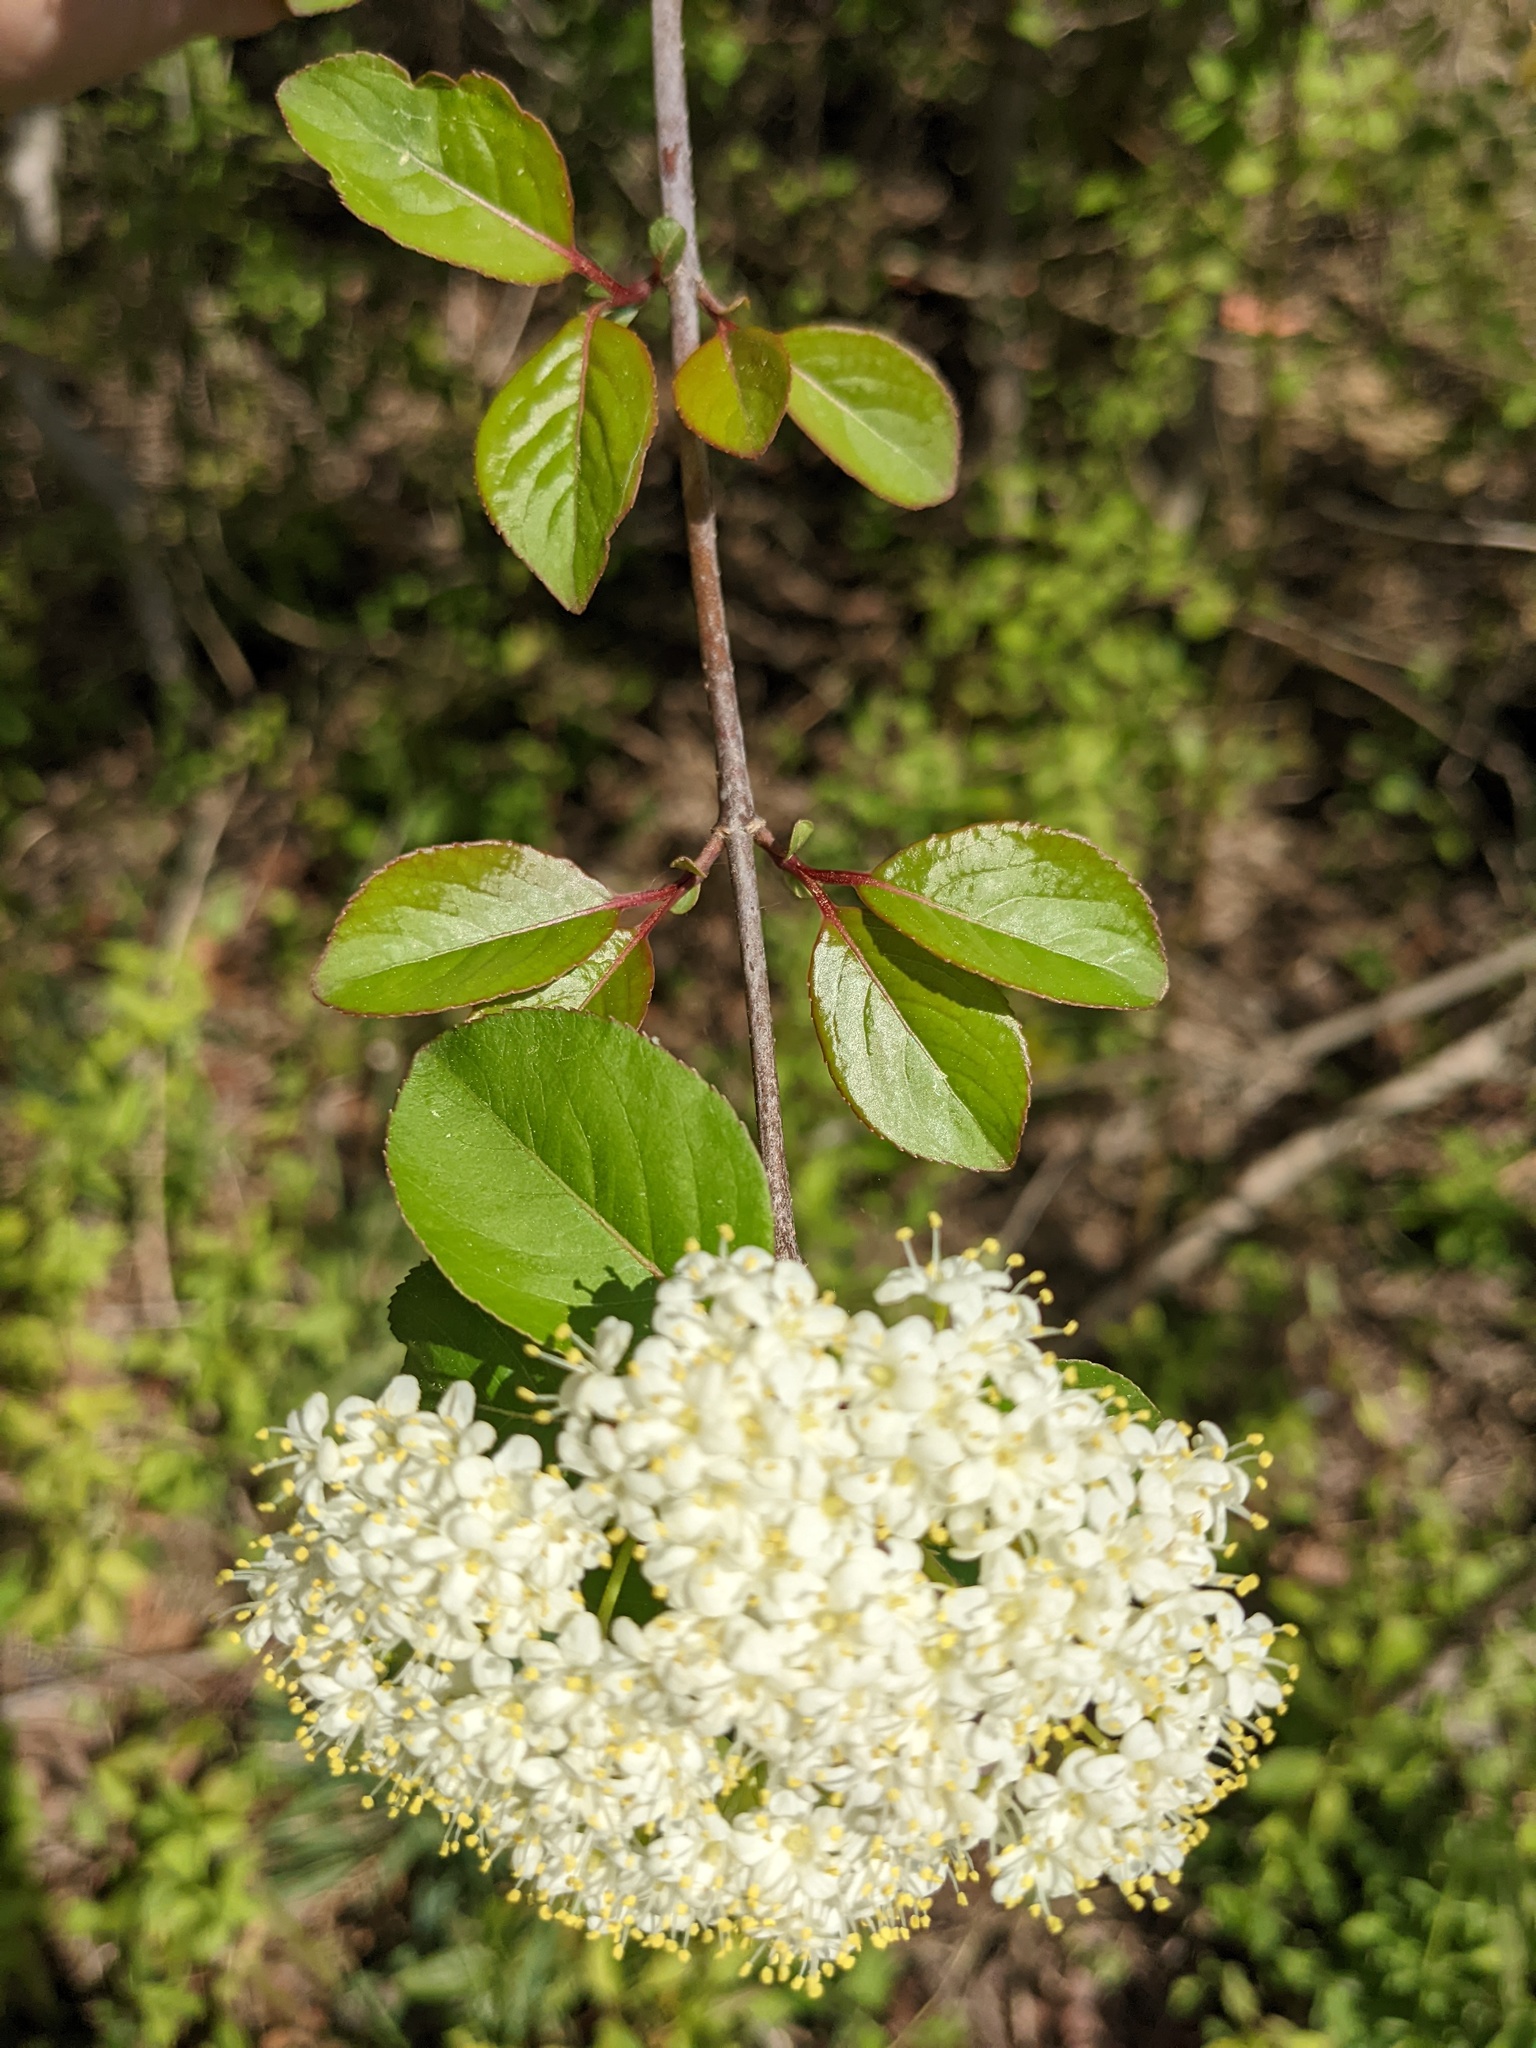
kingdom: Plantae
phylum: Tracheophyta
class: Magnoliopsida
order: Dipsacales
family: Viburnaceae
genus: Viburnum
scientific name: Viburnum prunifolium
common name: Black haw
